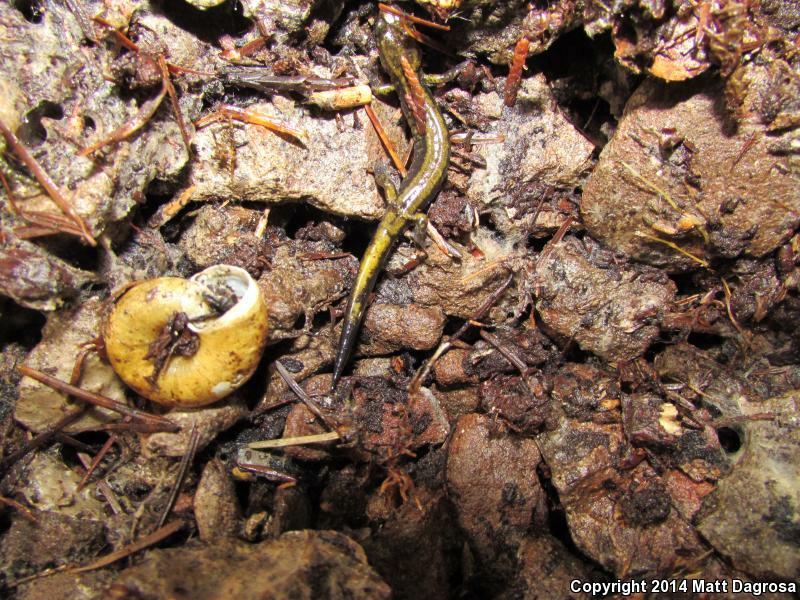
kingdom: Animalia
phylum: Chordata
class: Amphibia
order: Caudata
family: Plethodontidae
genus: Plethodon
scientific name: Plethodon dunni
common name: Dunn's salamander
